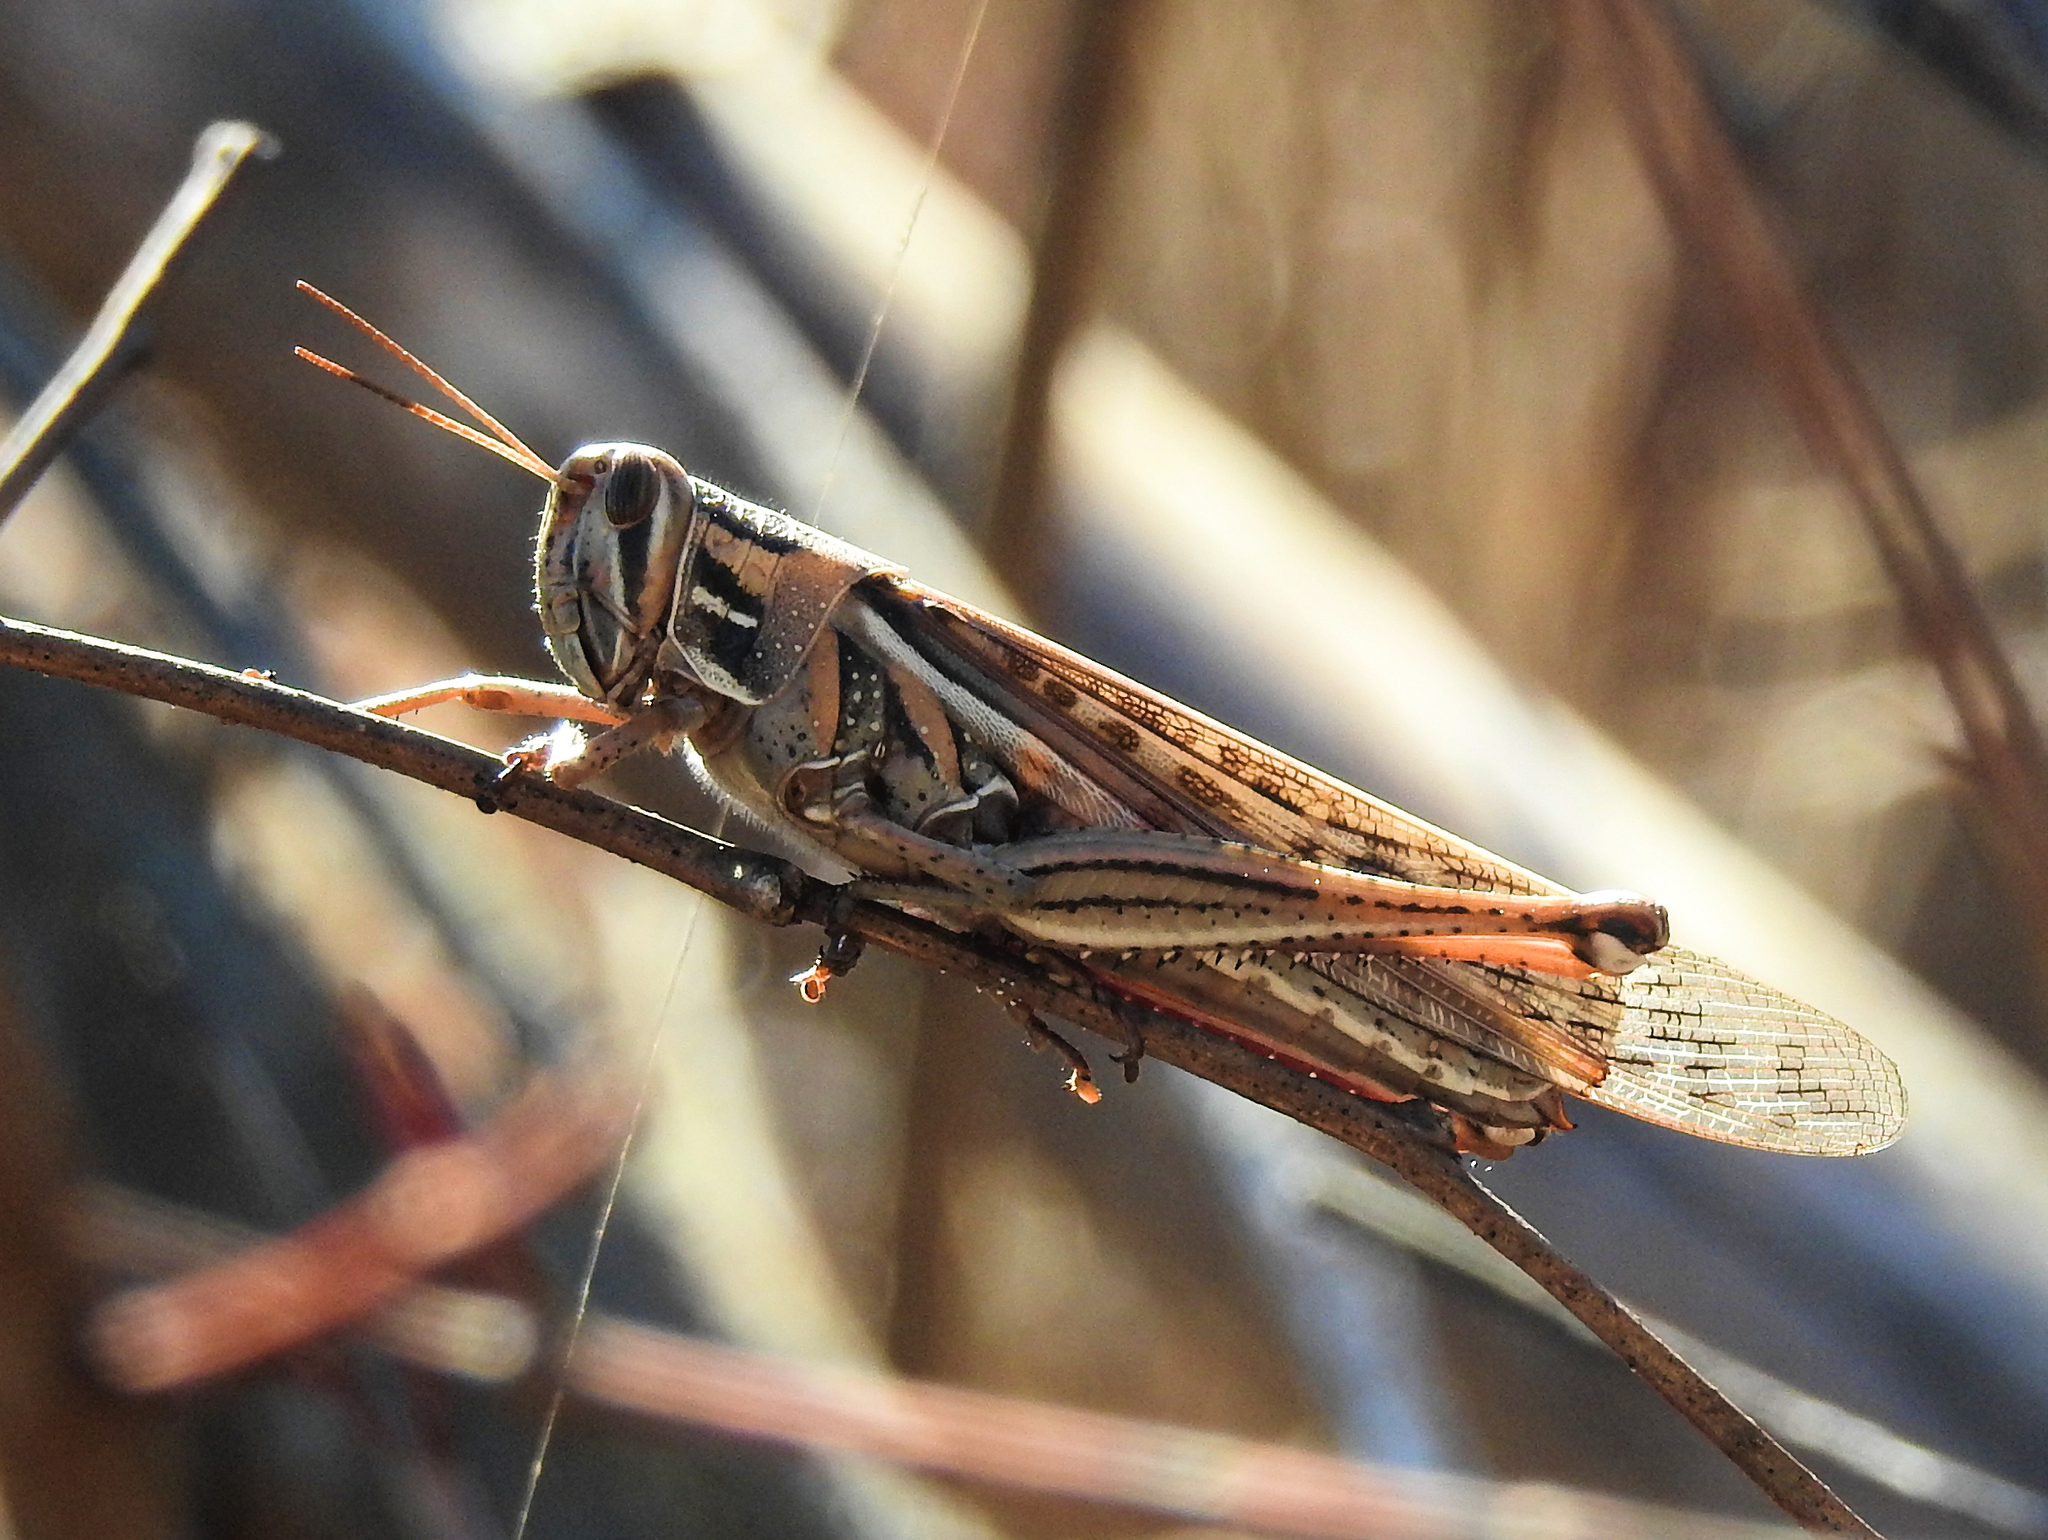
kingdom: Animalia
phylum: Arthropoda
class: Insecta
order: Orthoptera
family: Acrididae
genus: Schistocerca
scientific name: Schistocerca americana
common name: American bird locust
